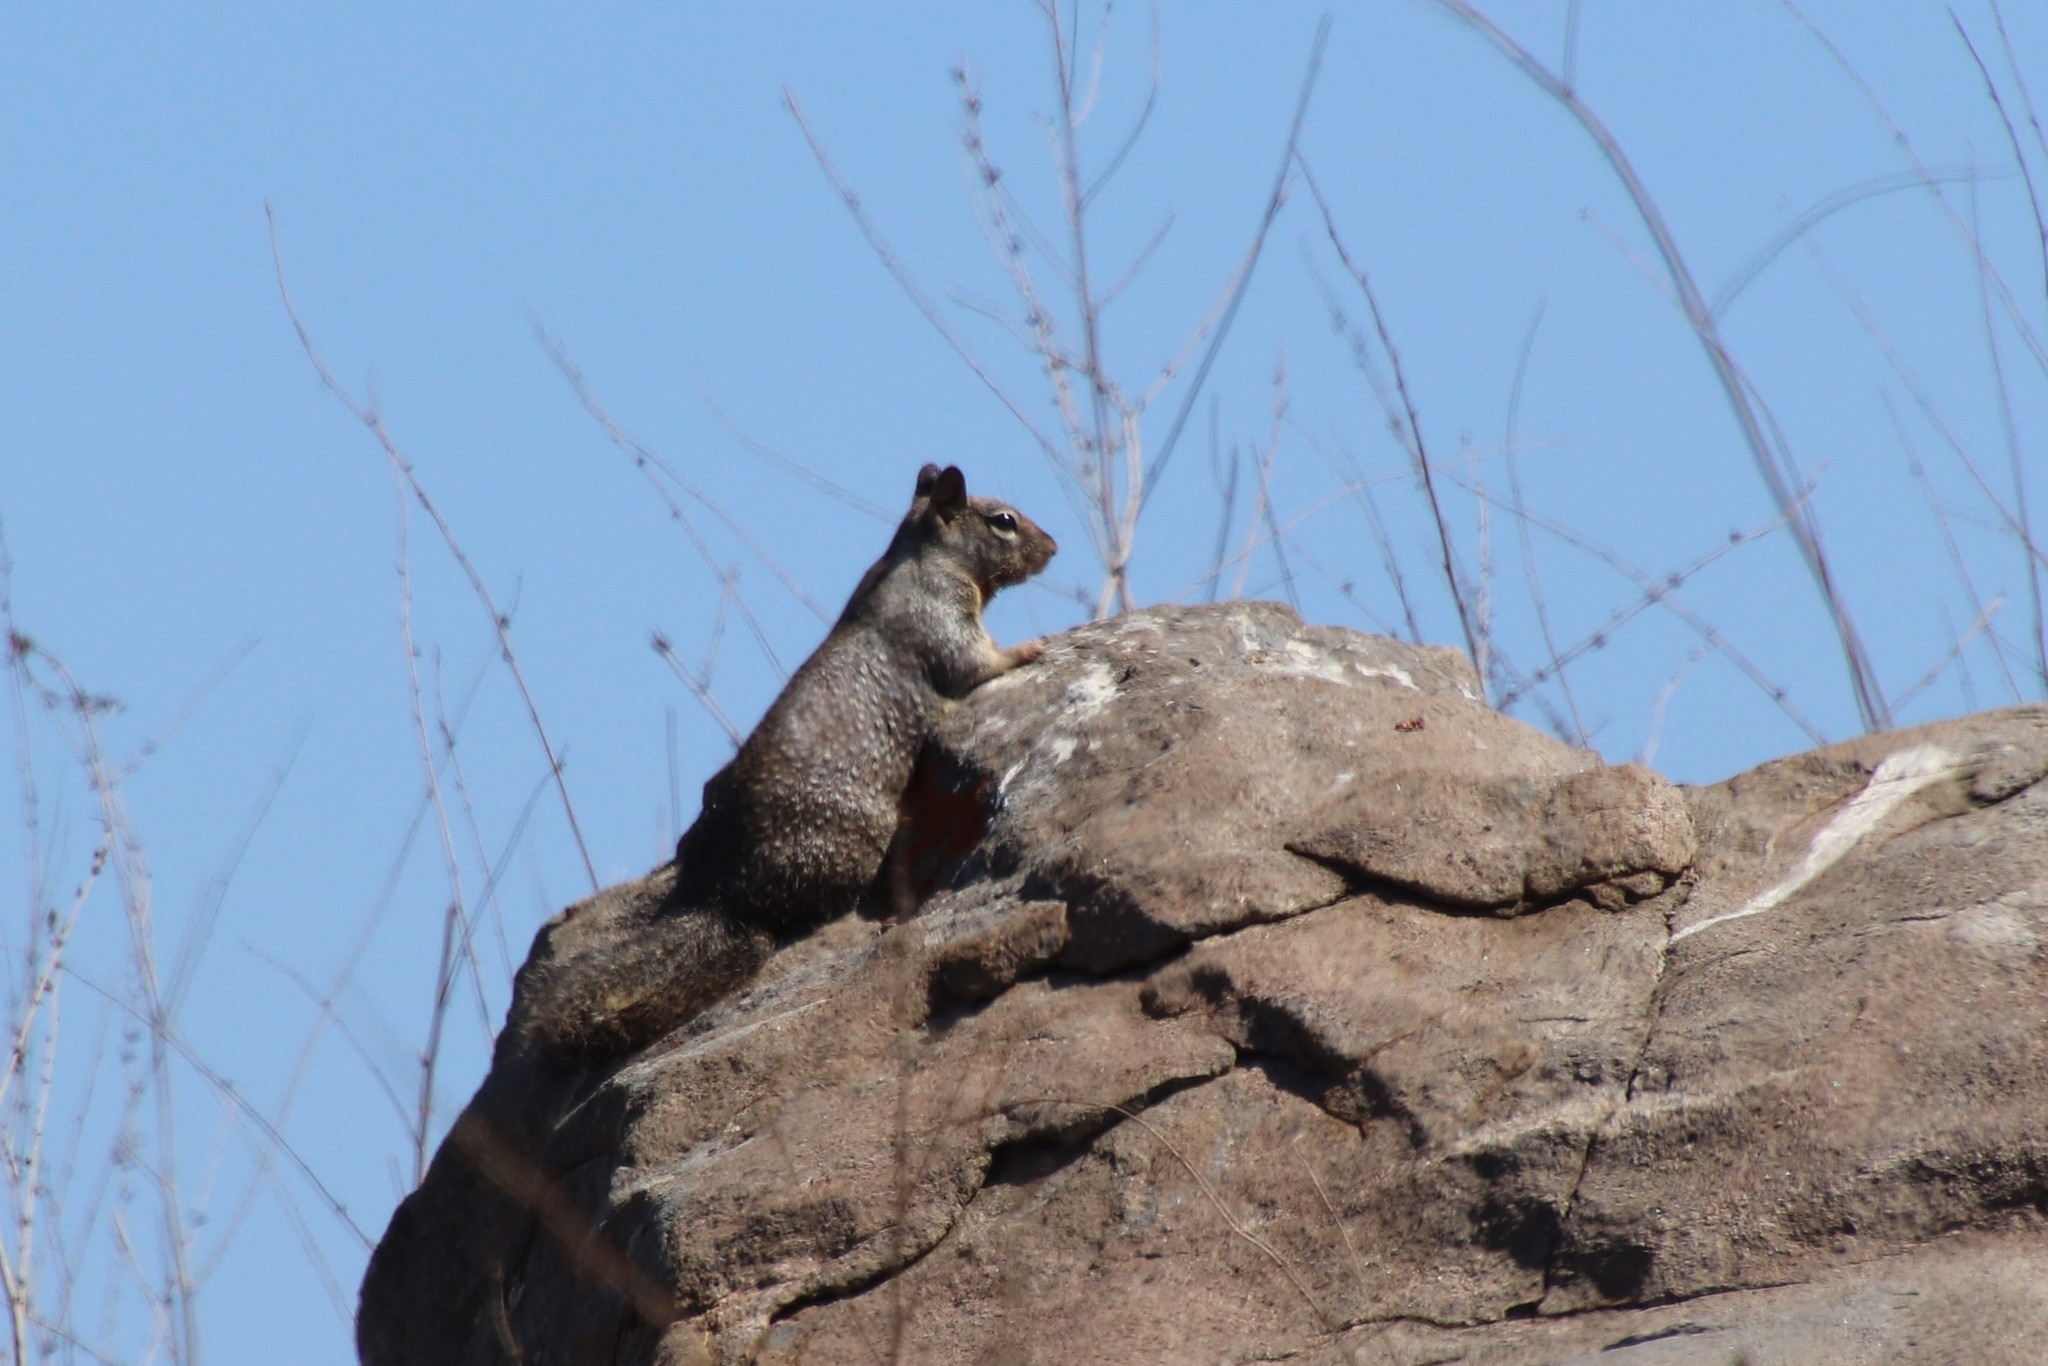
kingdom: Animalia
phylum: Chordata
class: Mammalia
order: Rodentia
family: Sciuridae
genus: Otospermophilus
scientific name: Otospermophilus beecheyi
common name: California ground squirrel
